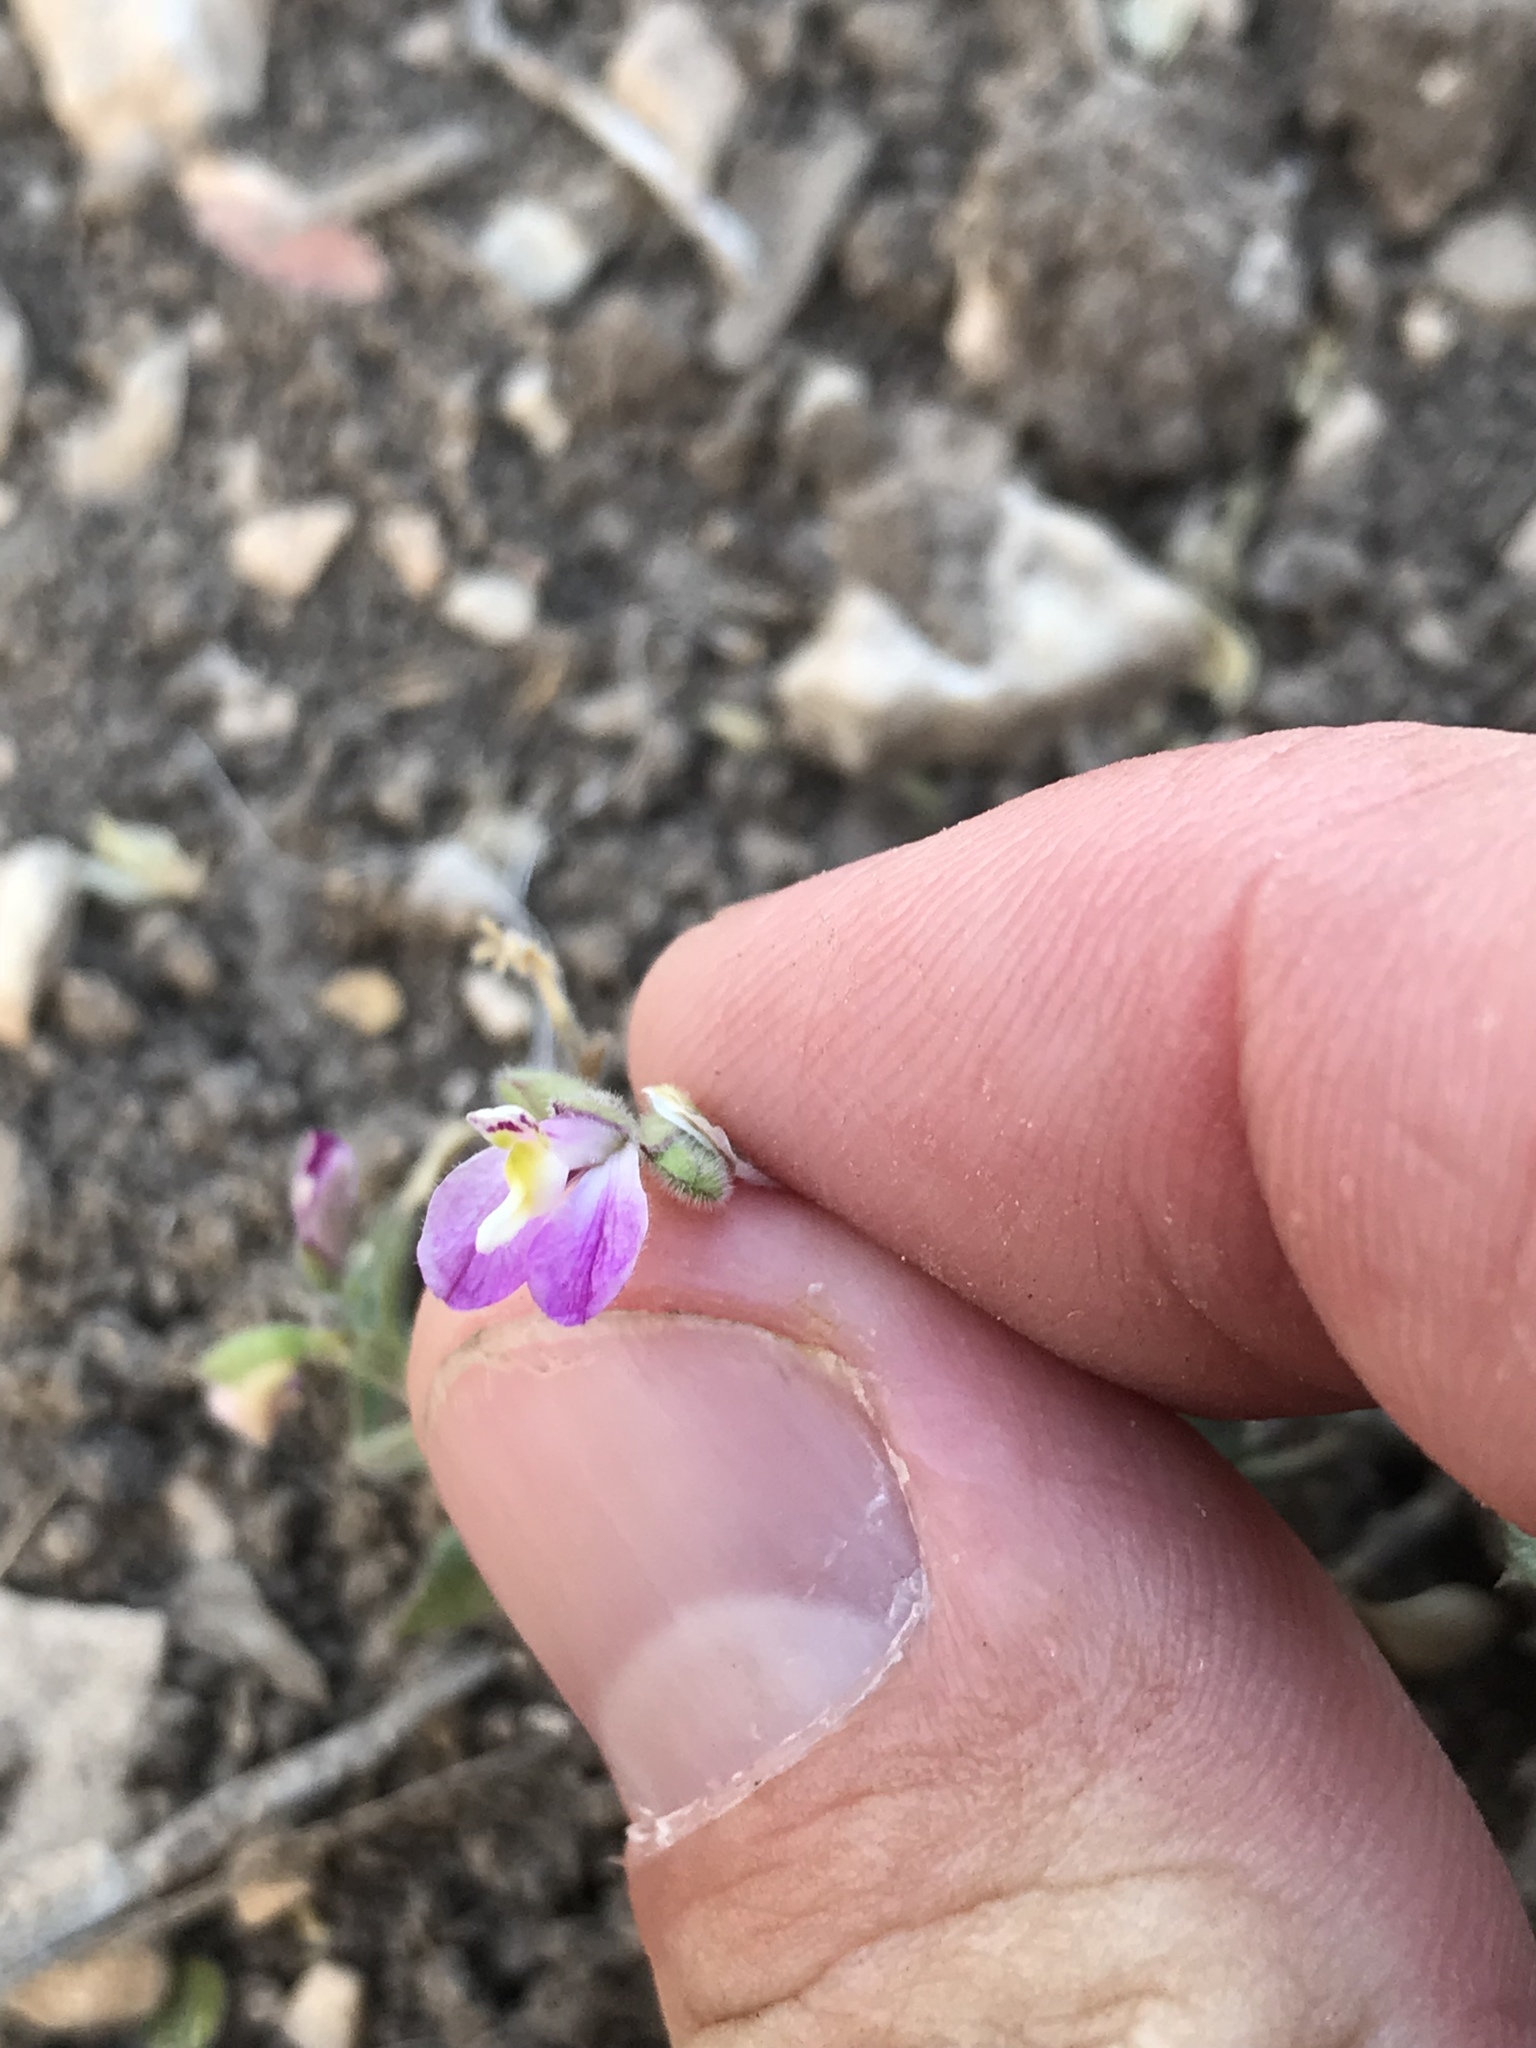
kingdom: Plantae
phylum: Tracheophyta
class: Magnoliopsida
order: Fabales
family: Polygalaceae
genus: Rhinotropis
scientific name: Rhinotropis lindheimeri
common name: Shrubby milkwort
